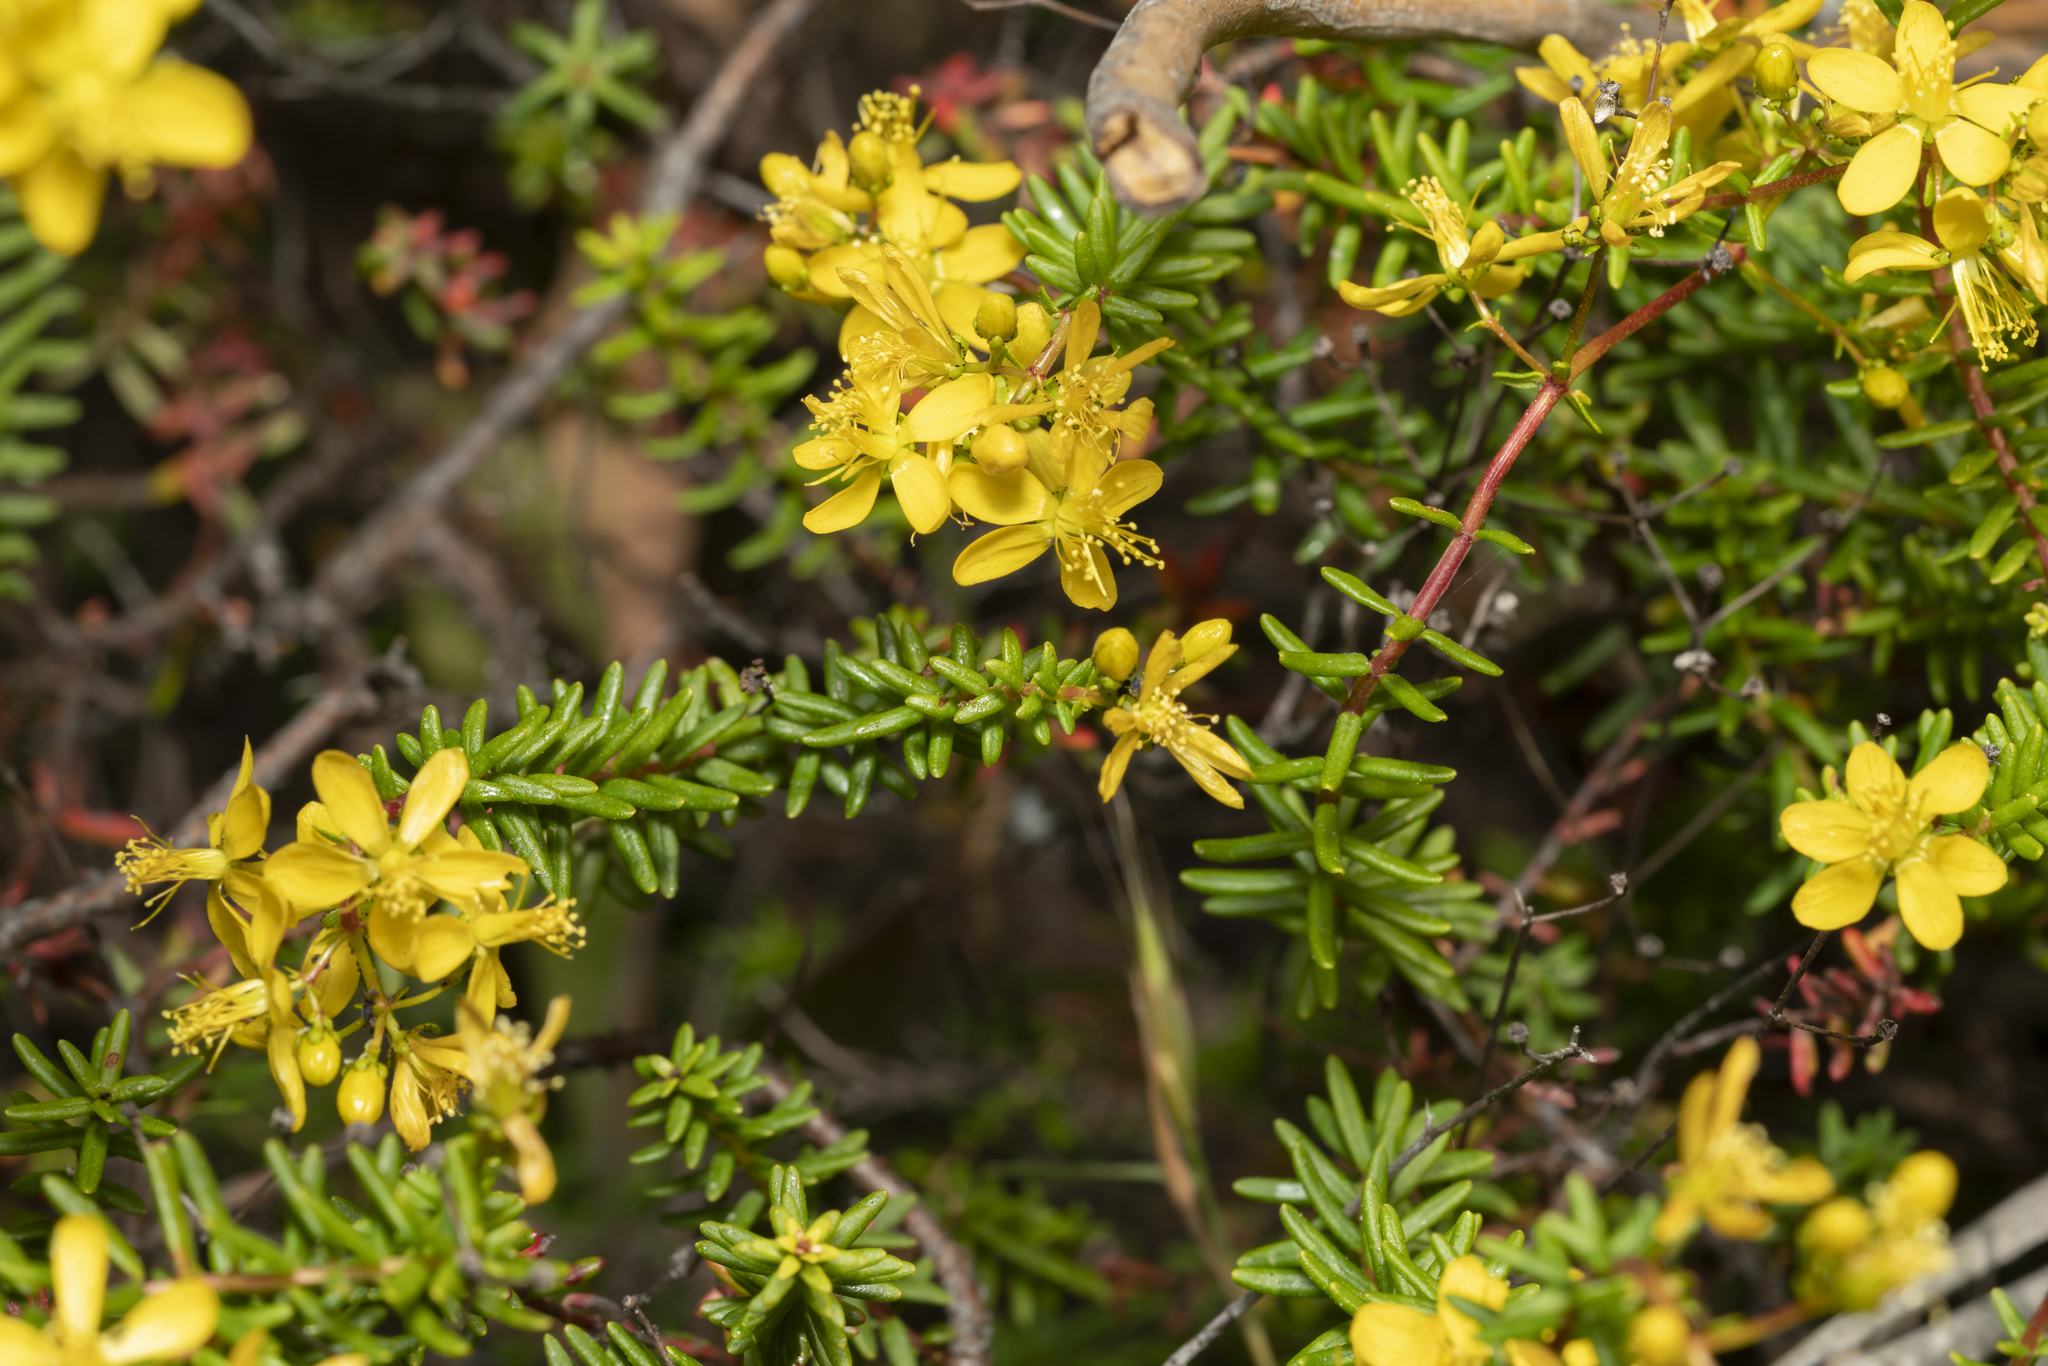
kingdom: Plantae
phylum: Tracheophyta
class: Magnoliopsida
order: Malpighiales
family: Hypericaceae
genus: Hypericum
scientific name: Hypericum empetrifolium
